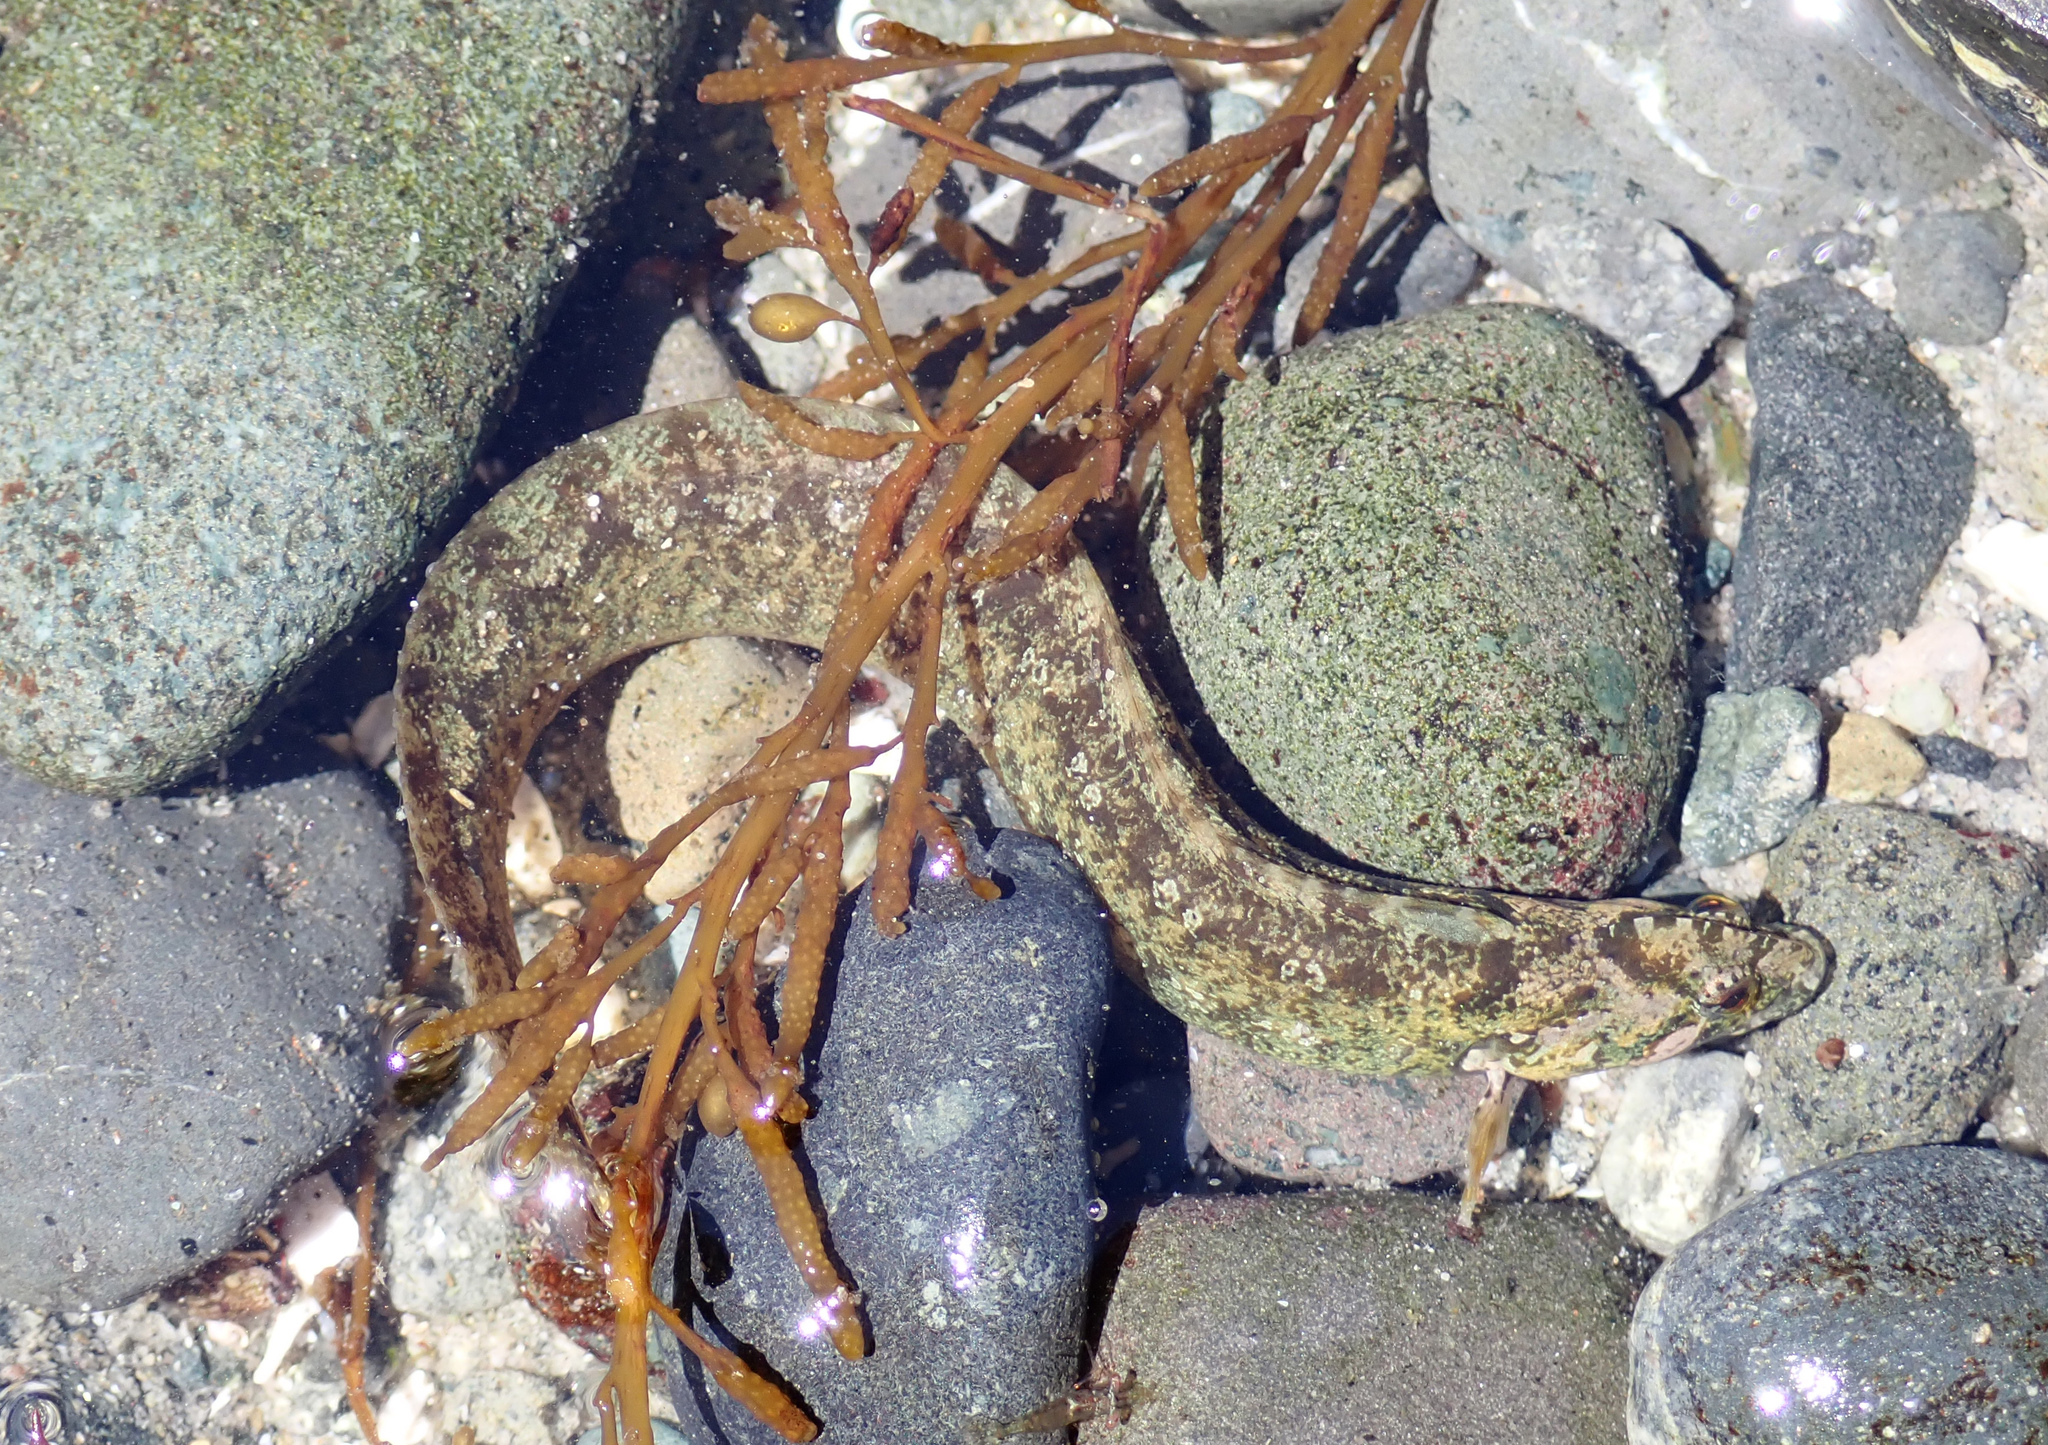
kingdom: Animalia
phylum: Chordata
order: Perciformes
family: Stichaeidae
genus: Anoplarchus
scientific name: Anoplarchus purpurescens
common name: High cockscomb
